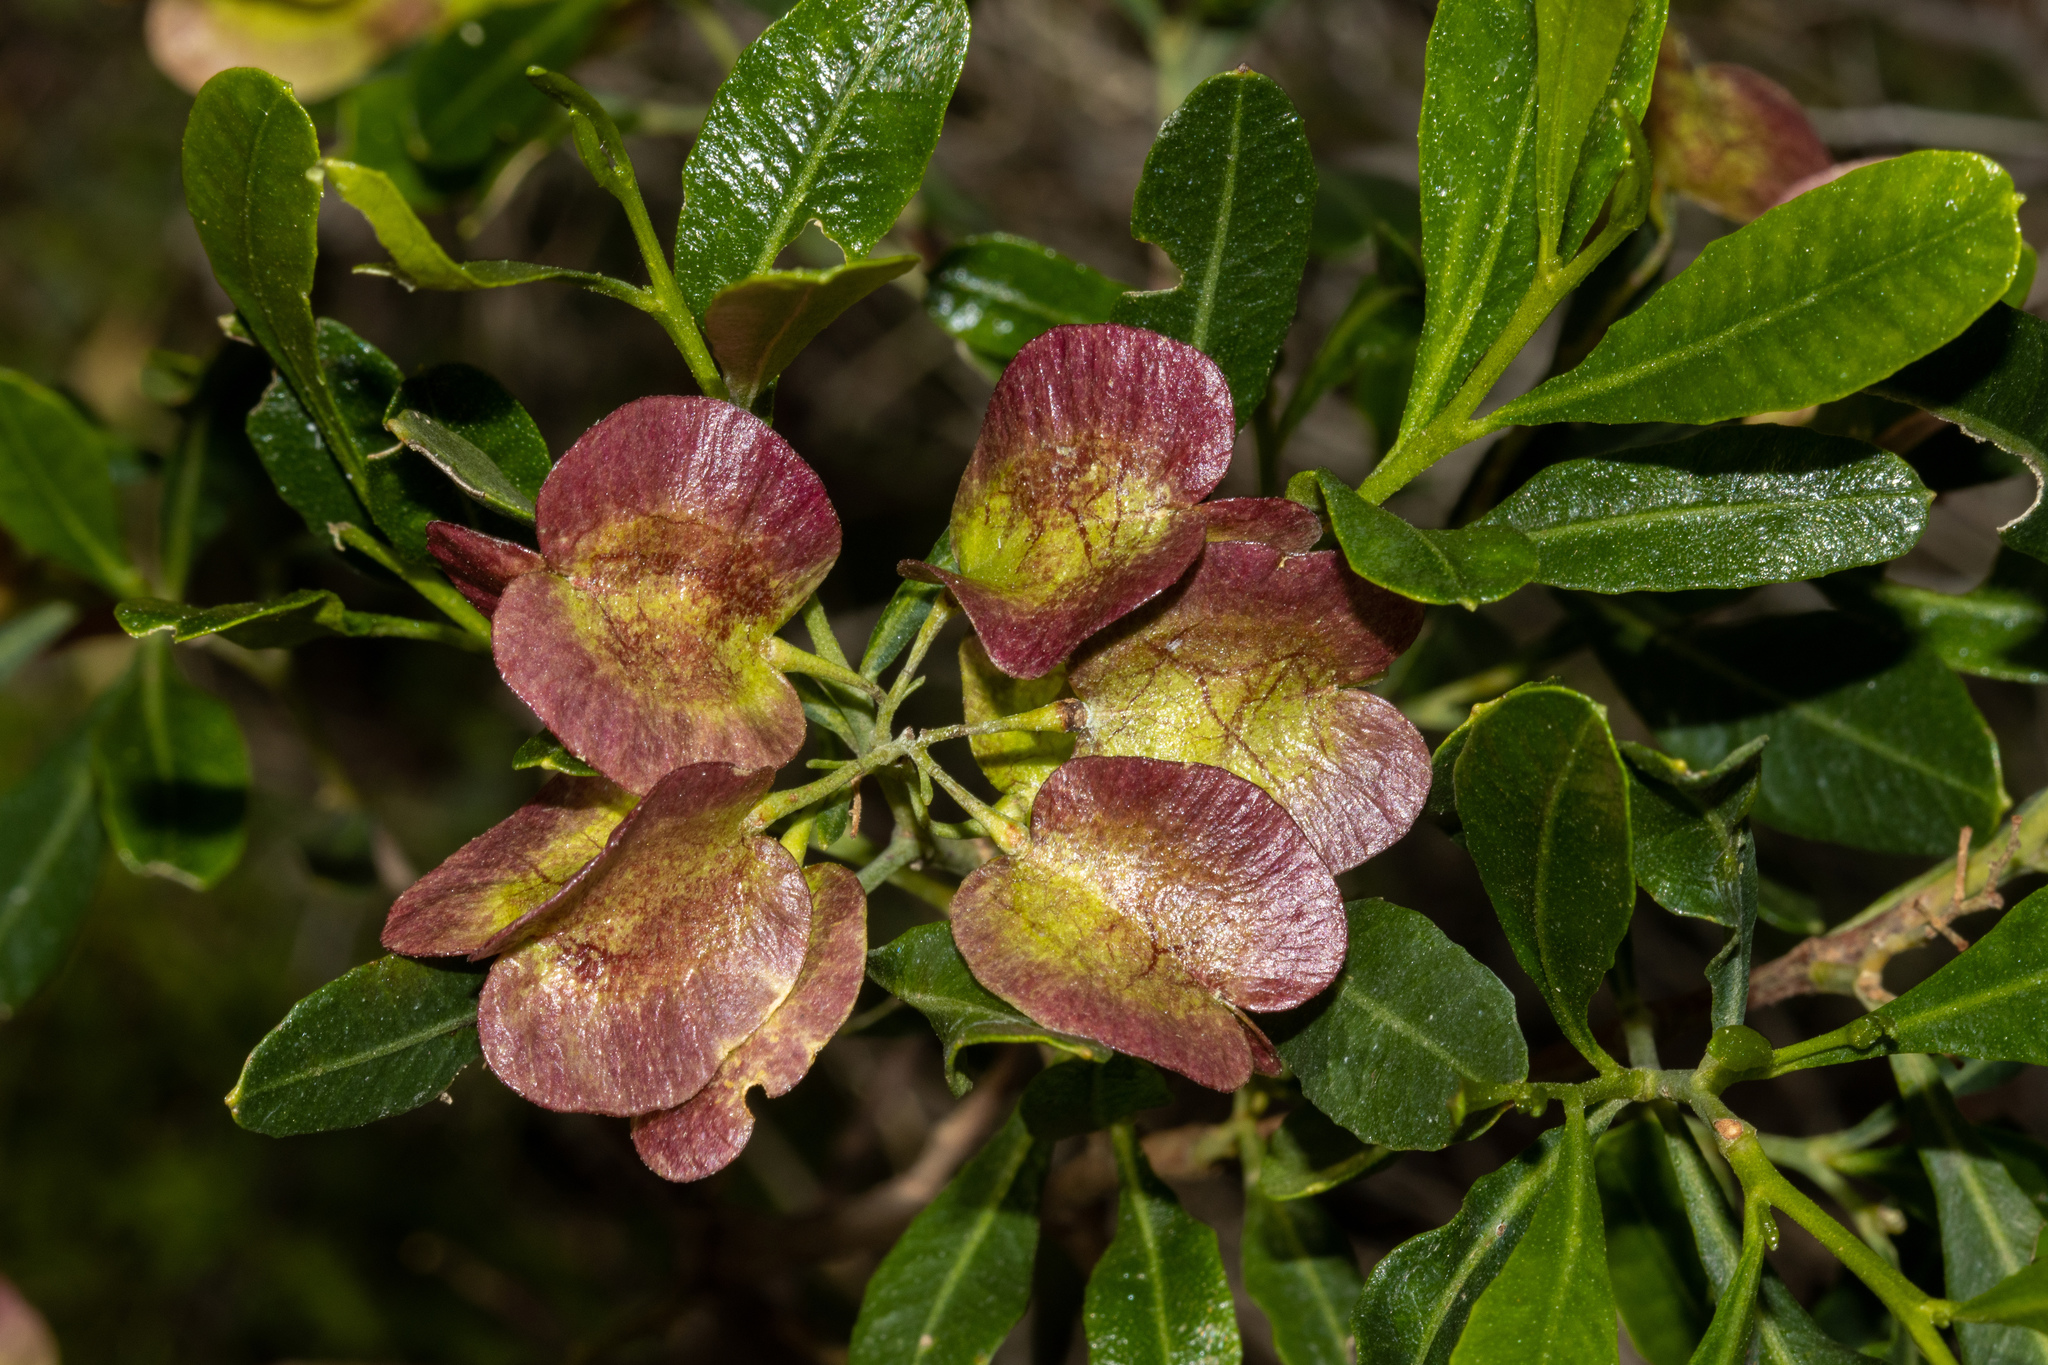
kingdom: Plantae
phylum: Tracheophyta
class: Magnoliopsida
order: Sapindales
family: Sapindaceae
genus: Dodonaea
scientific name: Dodonaea viscosa
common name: Hopbush
